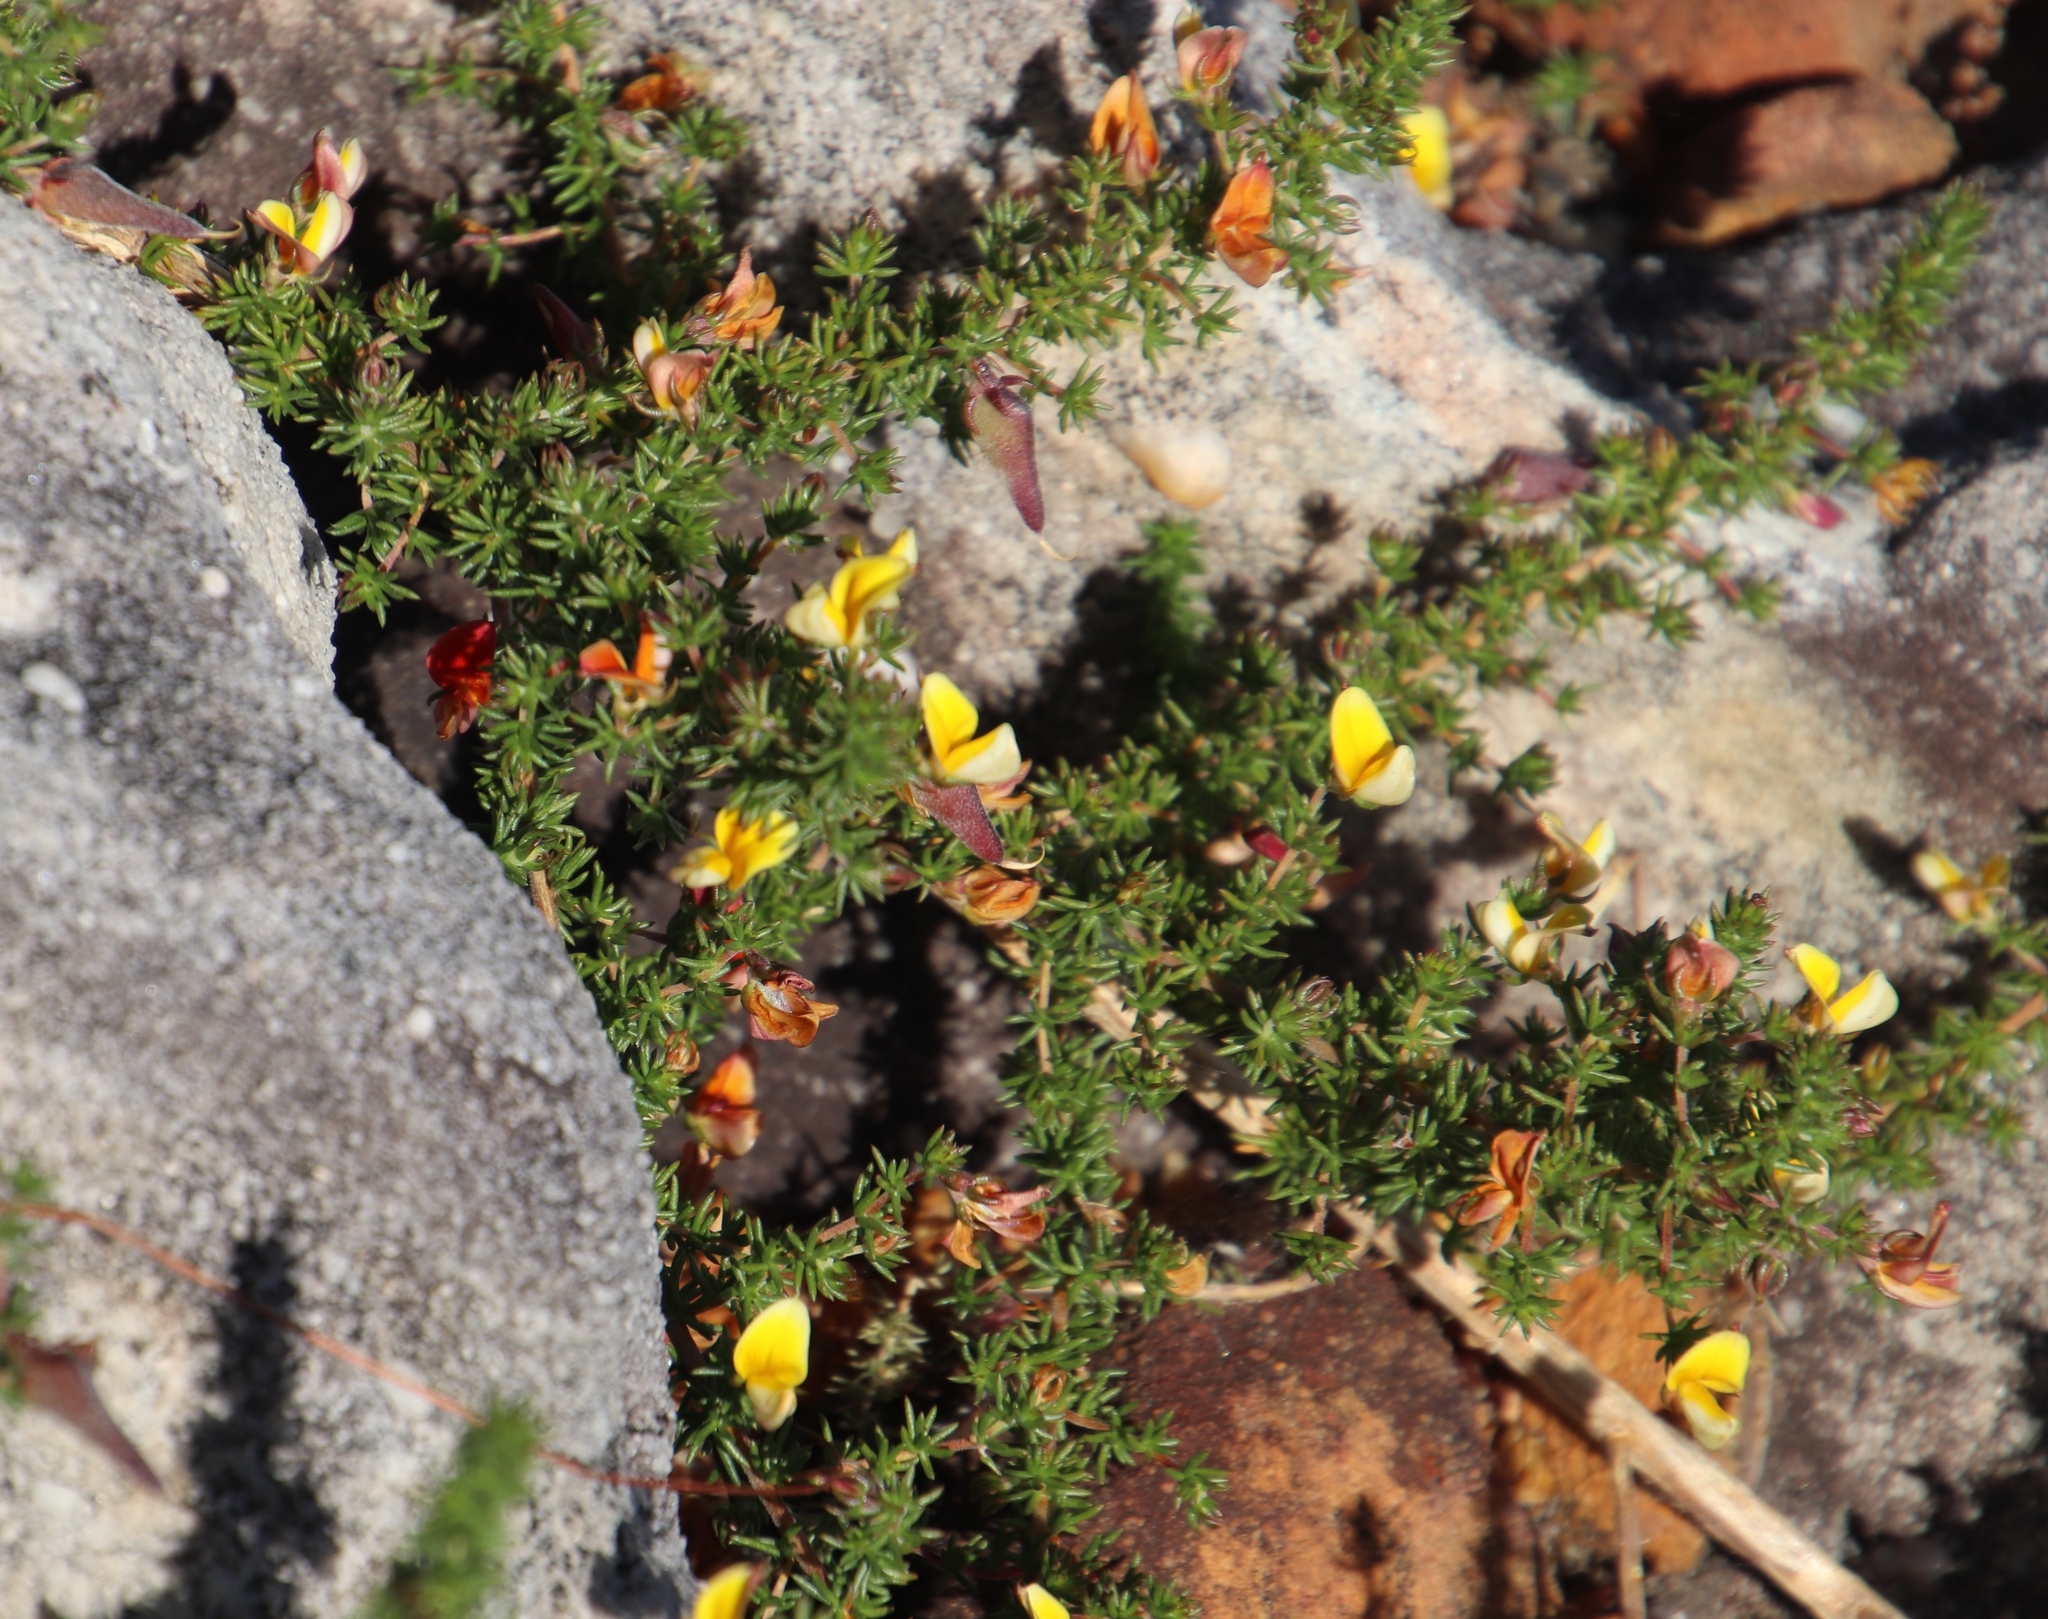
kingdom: Plantae
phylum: Tracheophyta
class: Magnoliopsida
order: Fabales
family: Fabaceae
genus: Aspalathus
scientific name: Aspalathus retroflexa
